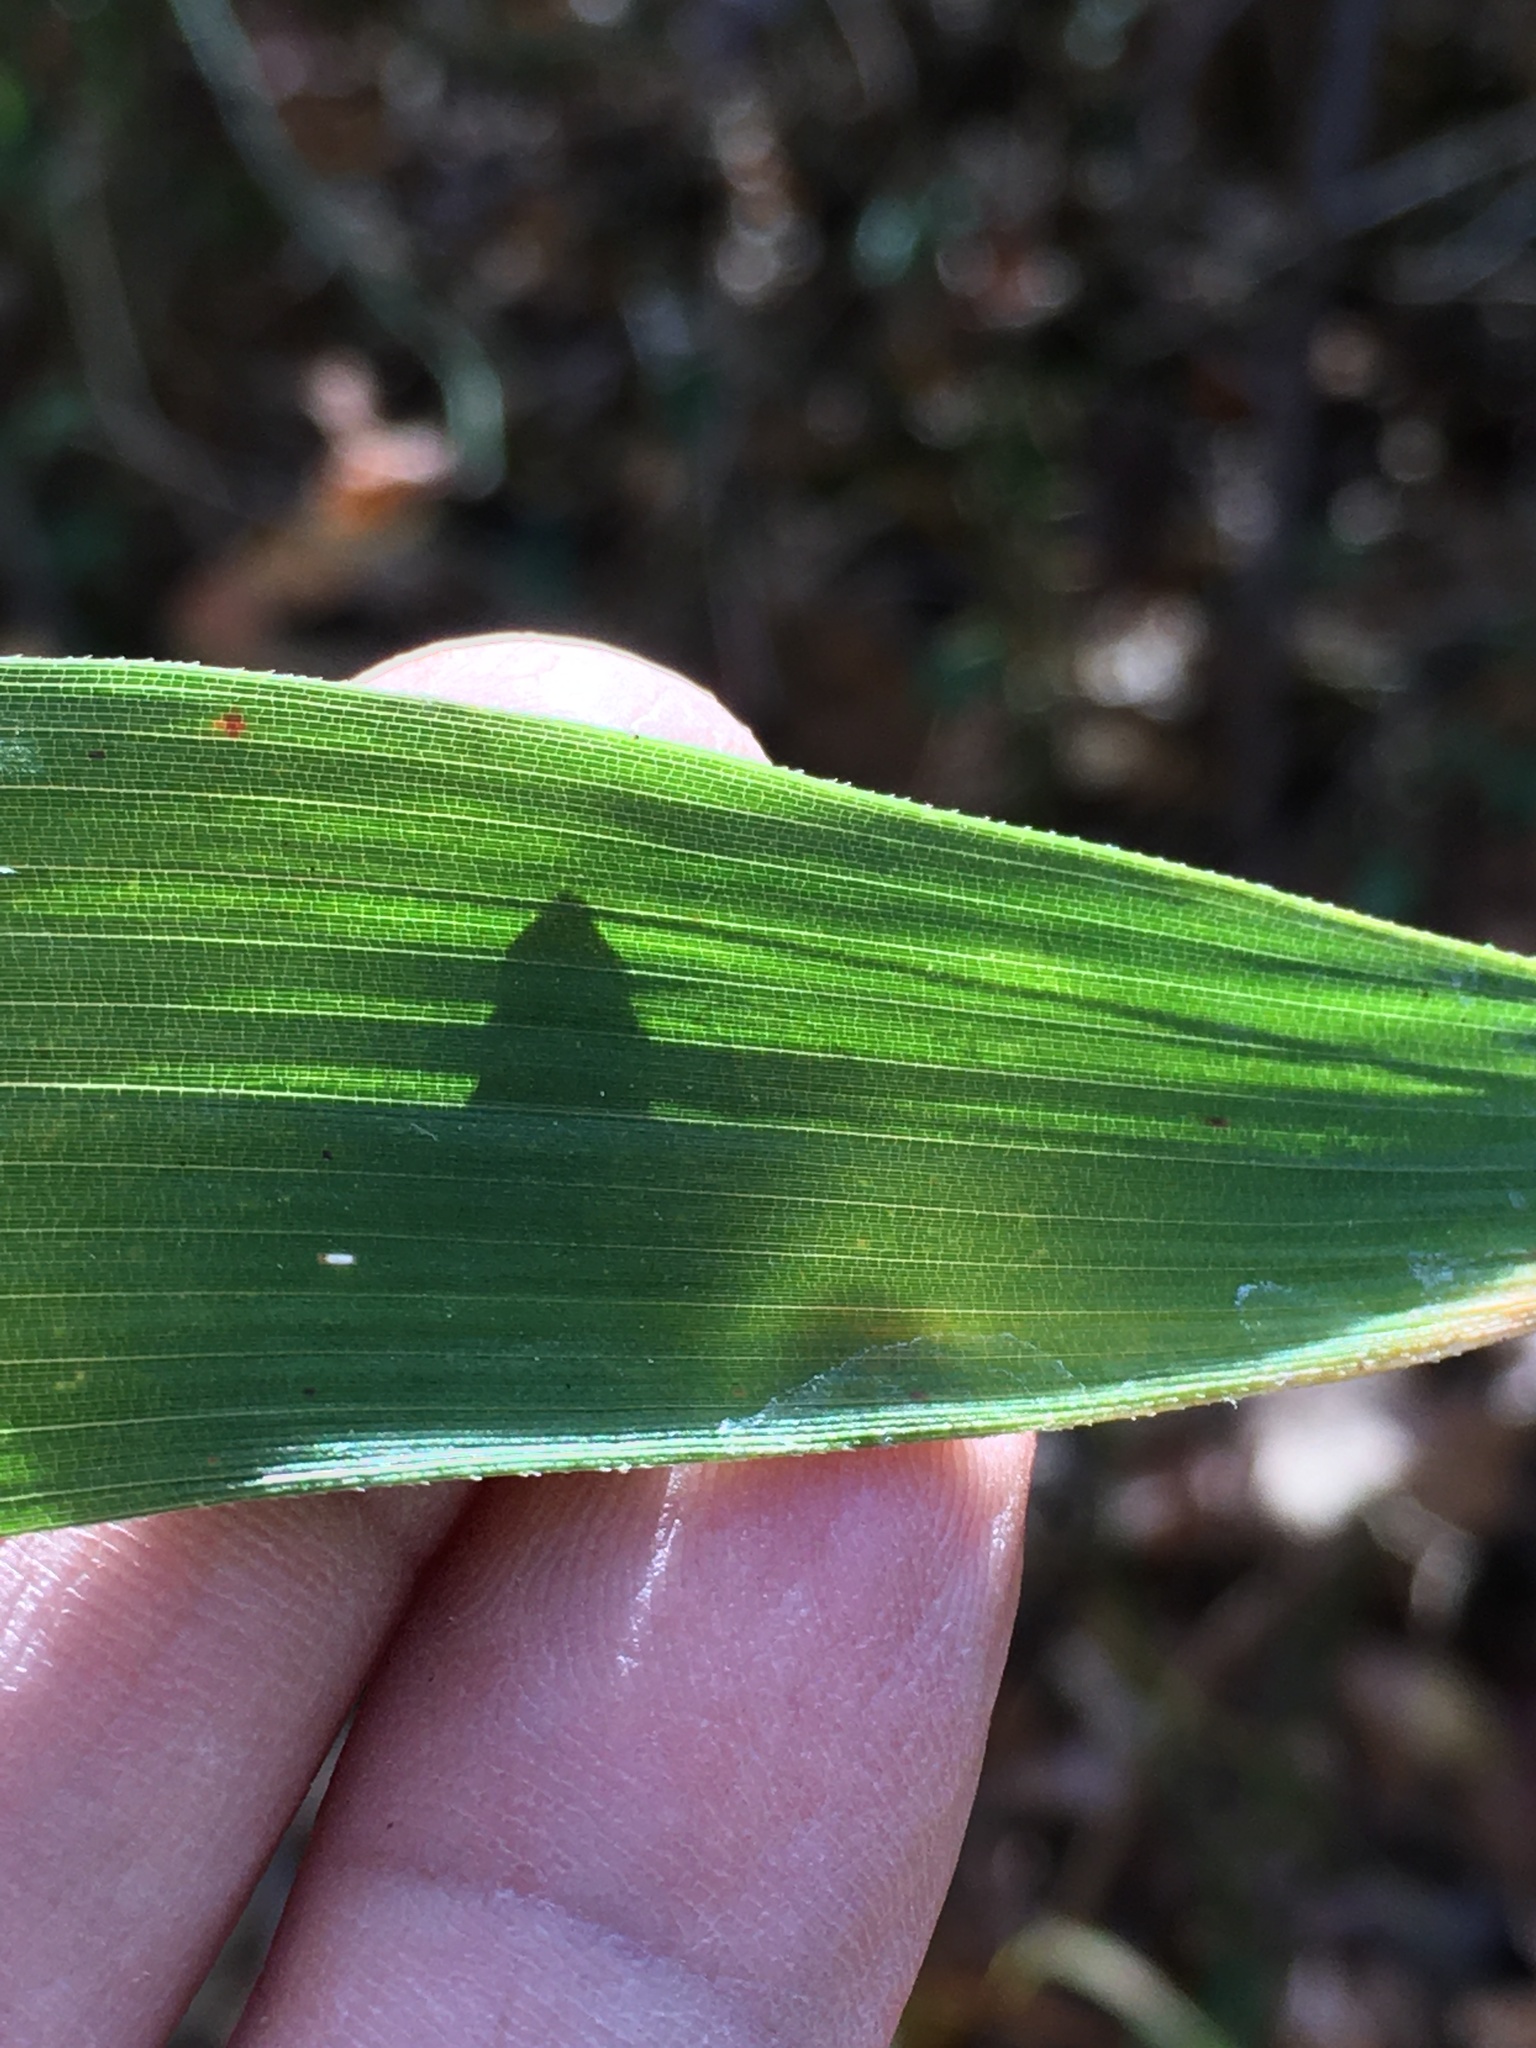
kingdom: Plantae
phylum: Tracheophyta
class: Liliopsida
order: Poales
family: Poaceae
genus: Arundinaria
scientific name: Arundinaria tecta
